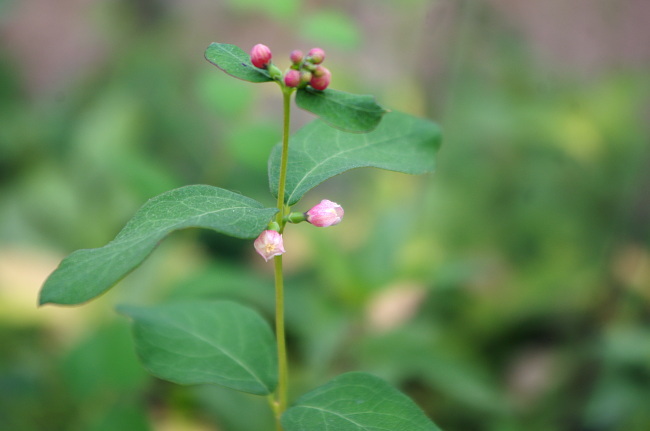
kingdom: Plantae
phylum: Tracheophyta
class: Magnoliopsida
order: Dipsacales
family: Caprifoliaceae
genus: Symphoricarpos
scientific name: Symphoricarpos albus
